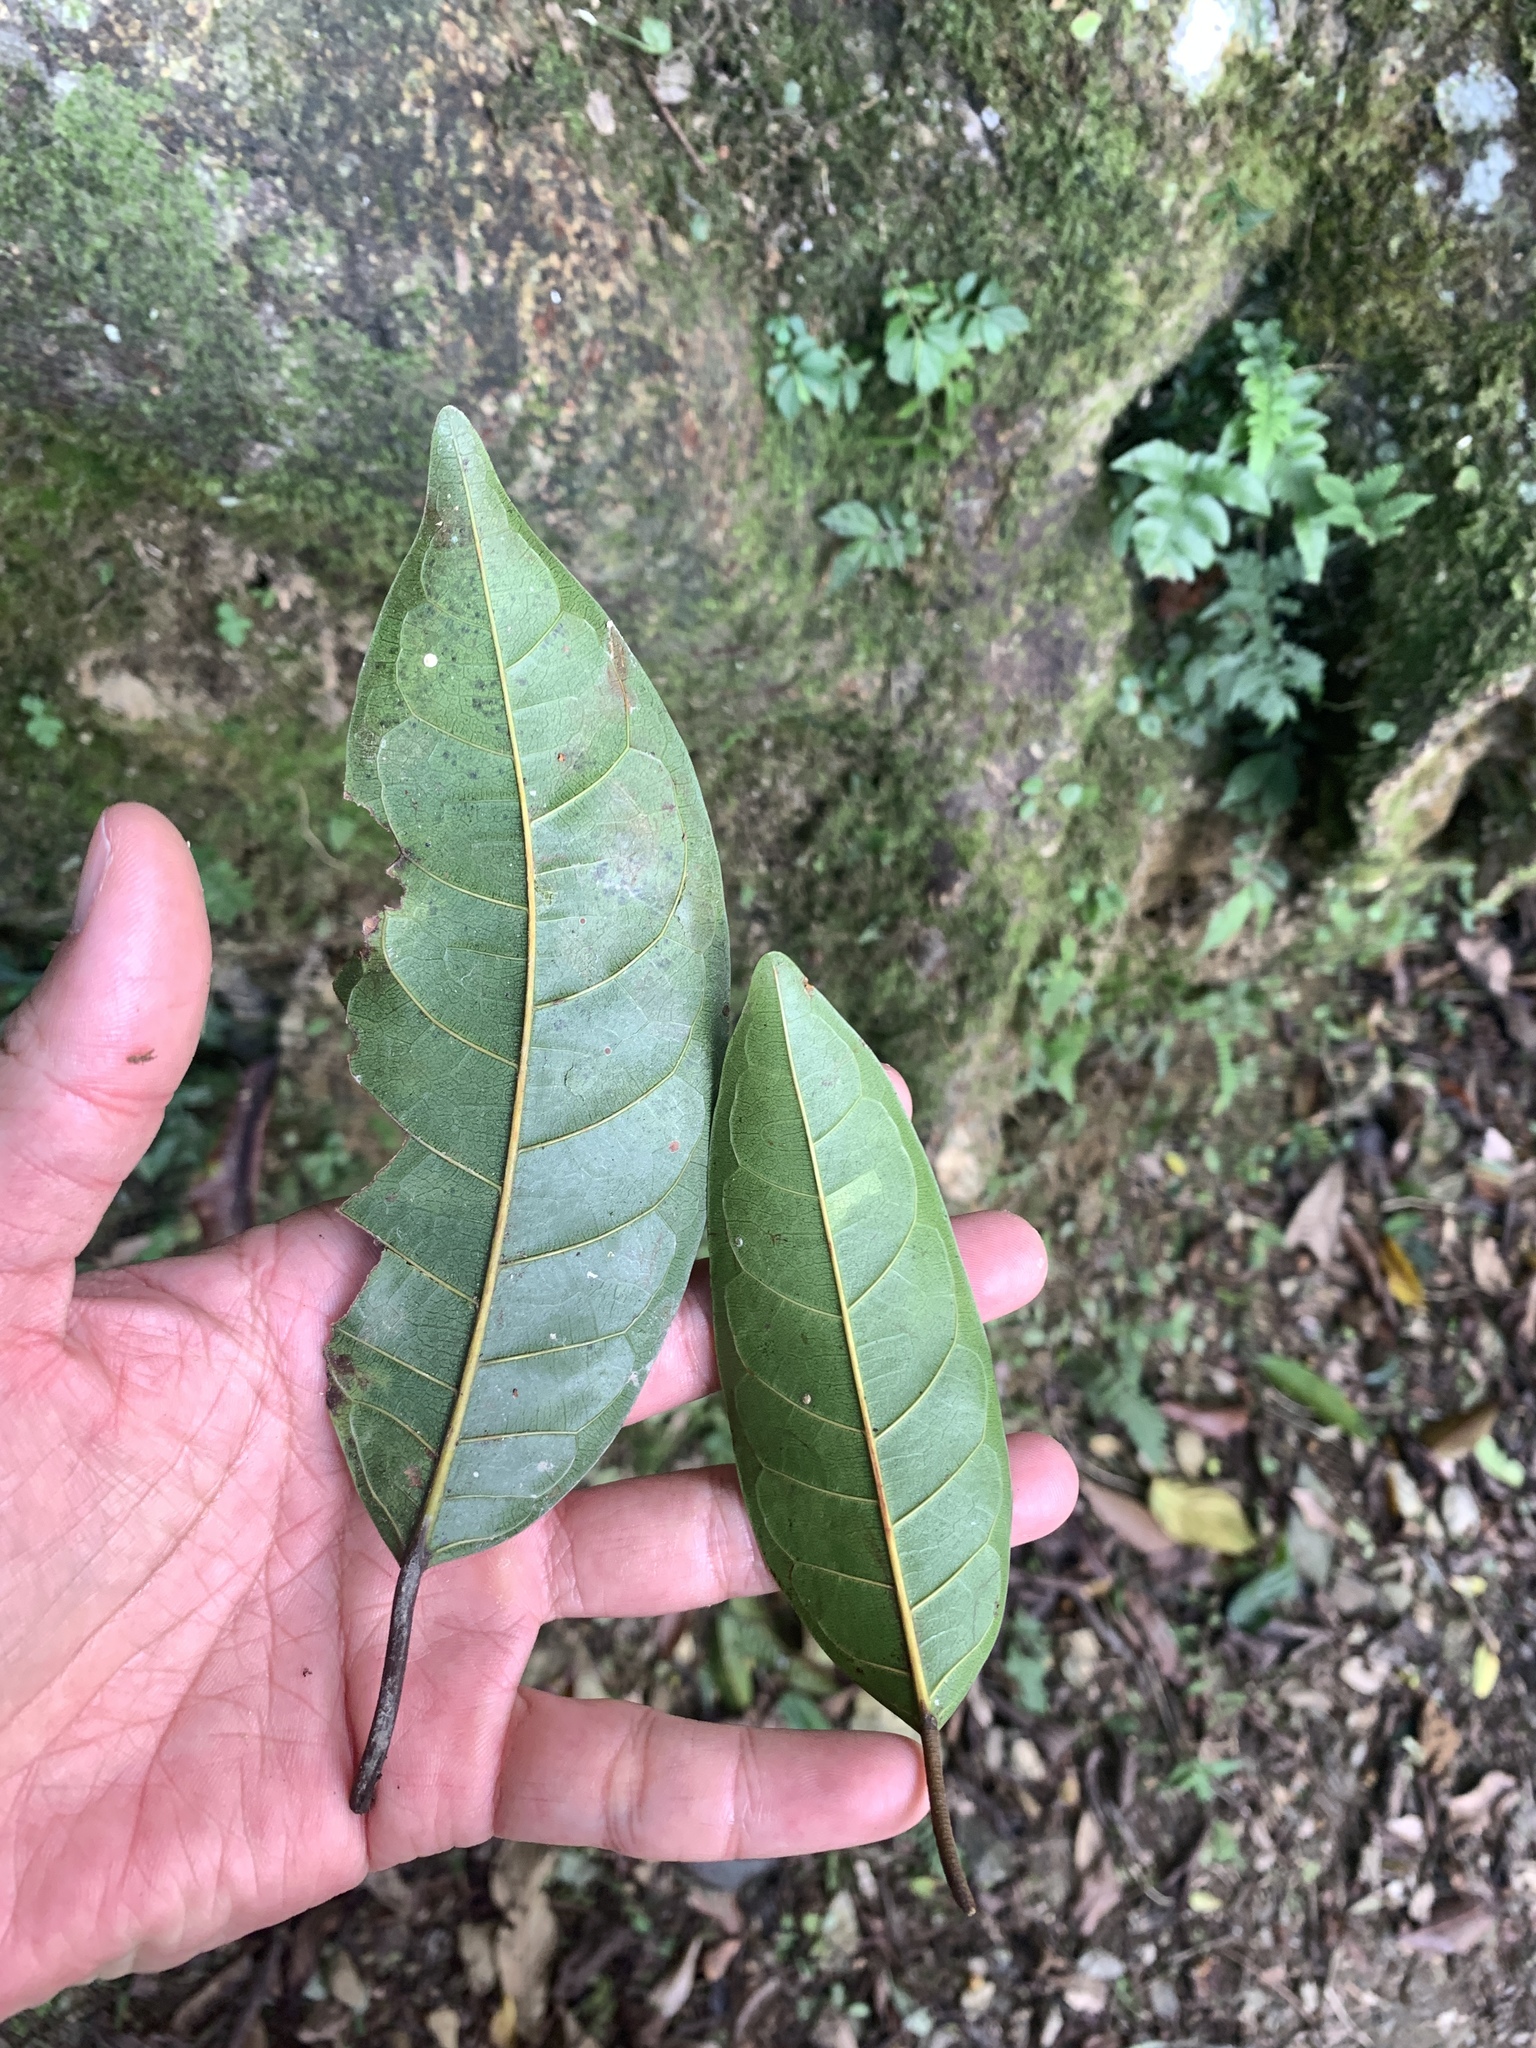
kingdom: Plantae
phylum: Tracheophyta
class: Magnoliopsida
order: Rosales
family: Moraceae
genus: Ficus
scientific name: Ficus nervosa
